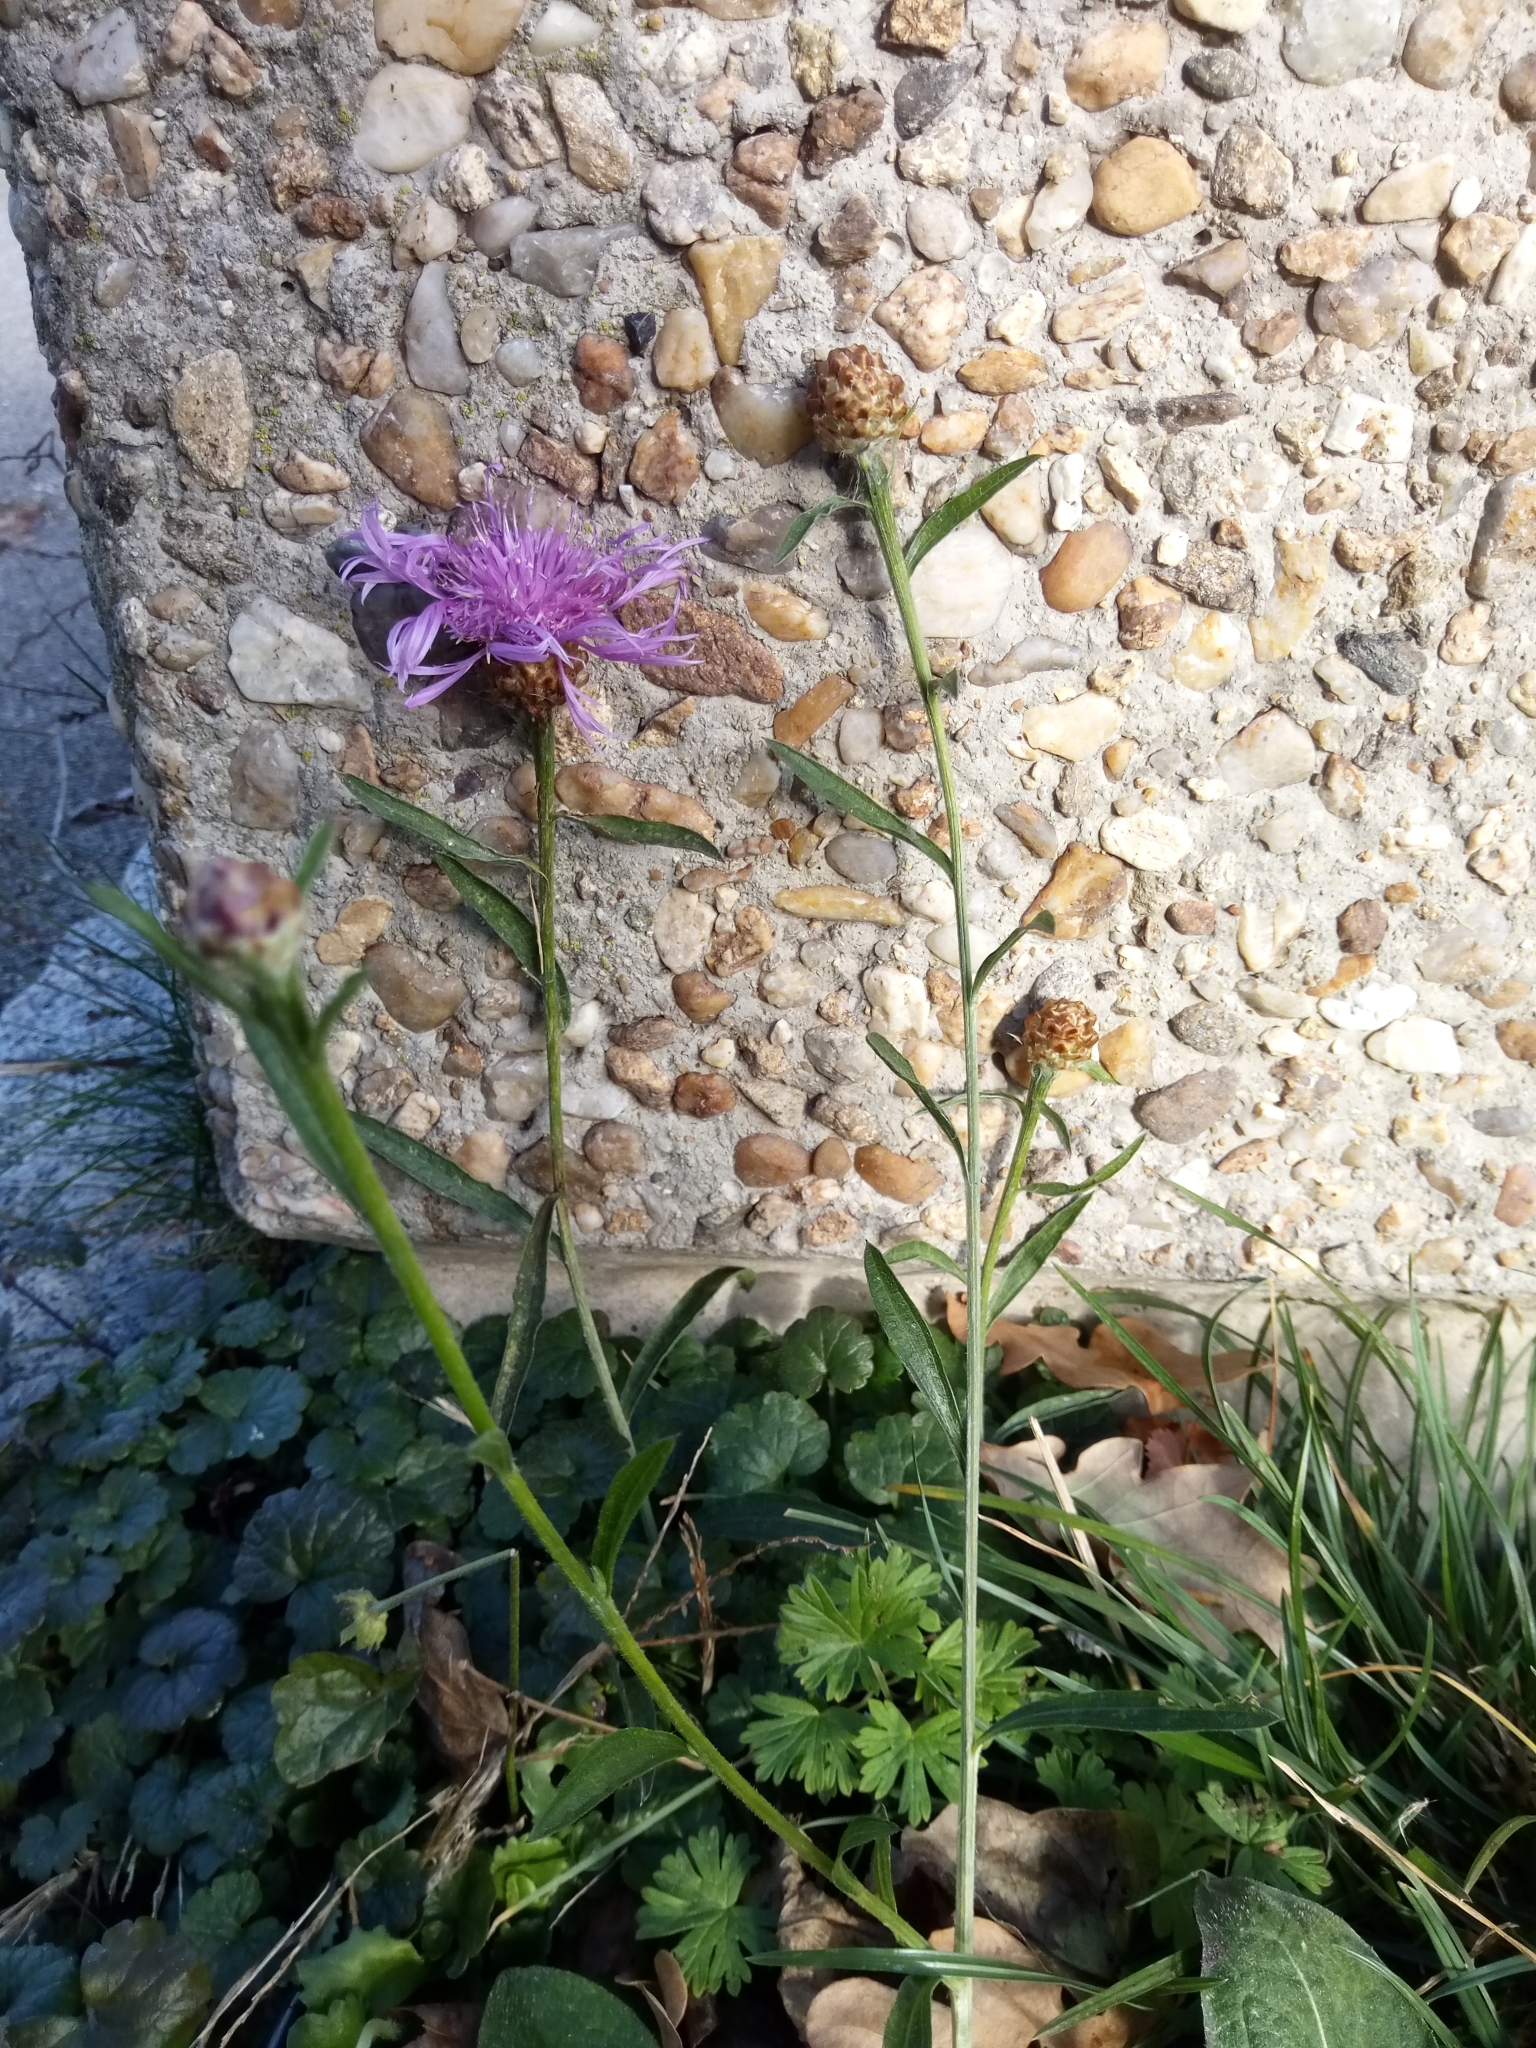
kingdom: Plantae
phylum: Tracheophyta
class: Magnoliopsida
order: Asterales
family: Asteraceae
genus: Centaurea
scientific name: Centaurea jacea
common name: Brown knapweed
